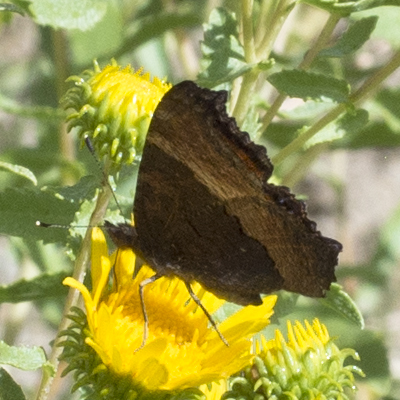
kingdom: Animalia
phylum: Arthropoda
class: Insecta
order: Lepidoptera
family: Nymphalidae
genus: Aglais
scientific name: Aglais milberti
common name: Milbert's tortoiseshell
